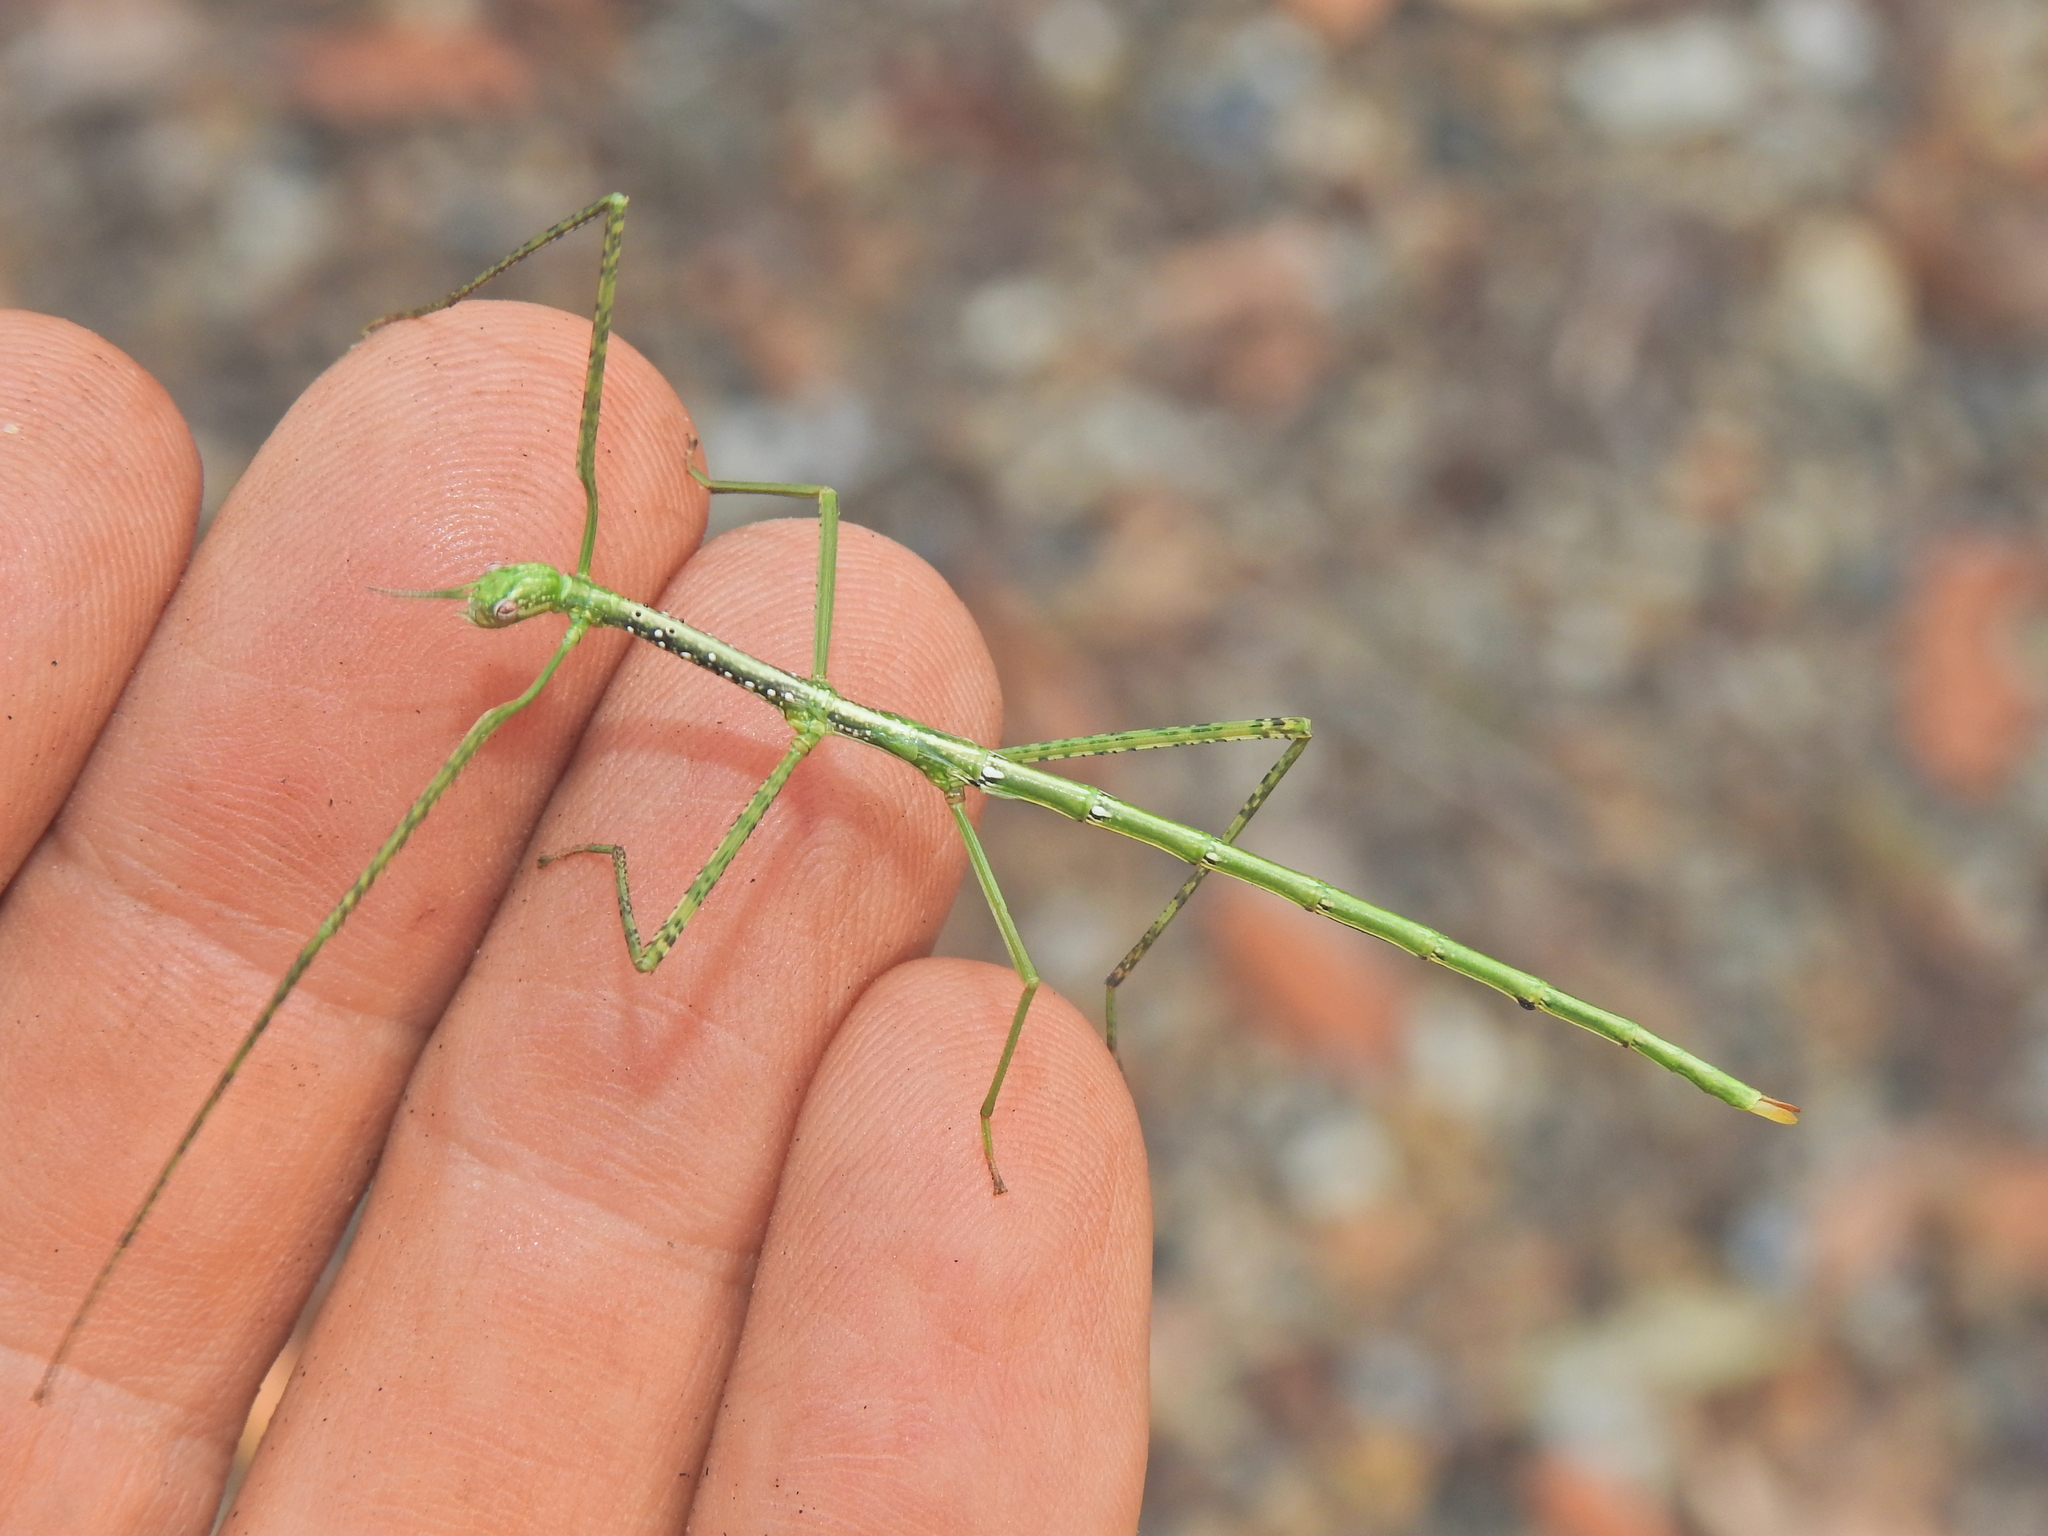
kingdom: Animalia
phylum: Arthropoda
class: Insecta
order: Phasmida
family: Phasmatidae
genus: Anchiale
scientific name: Anchiale austrotessulata
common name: Tessellated stick-insect
